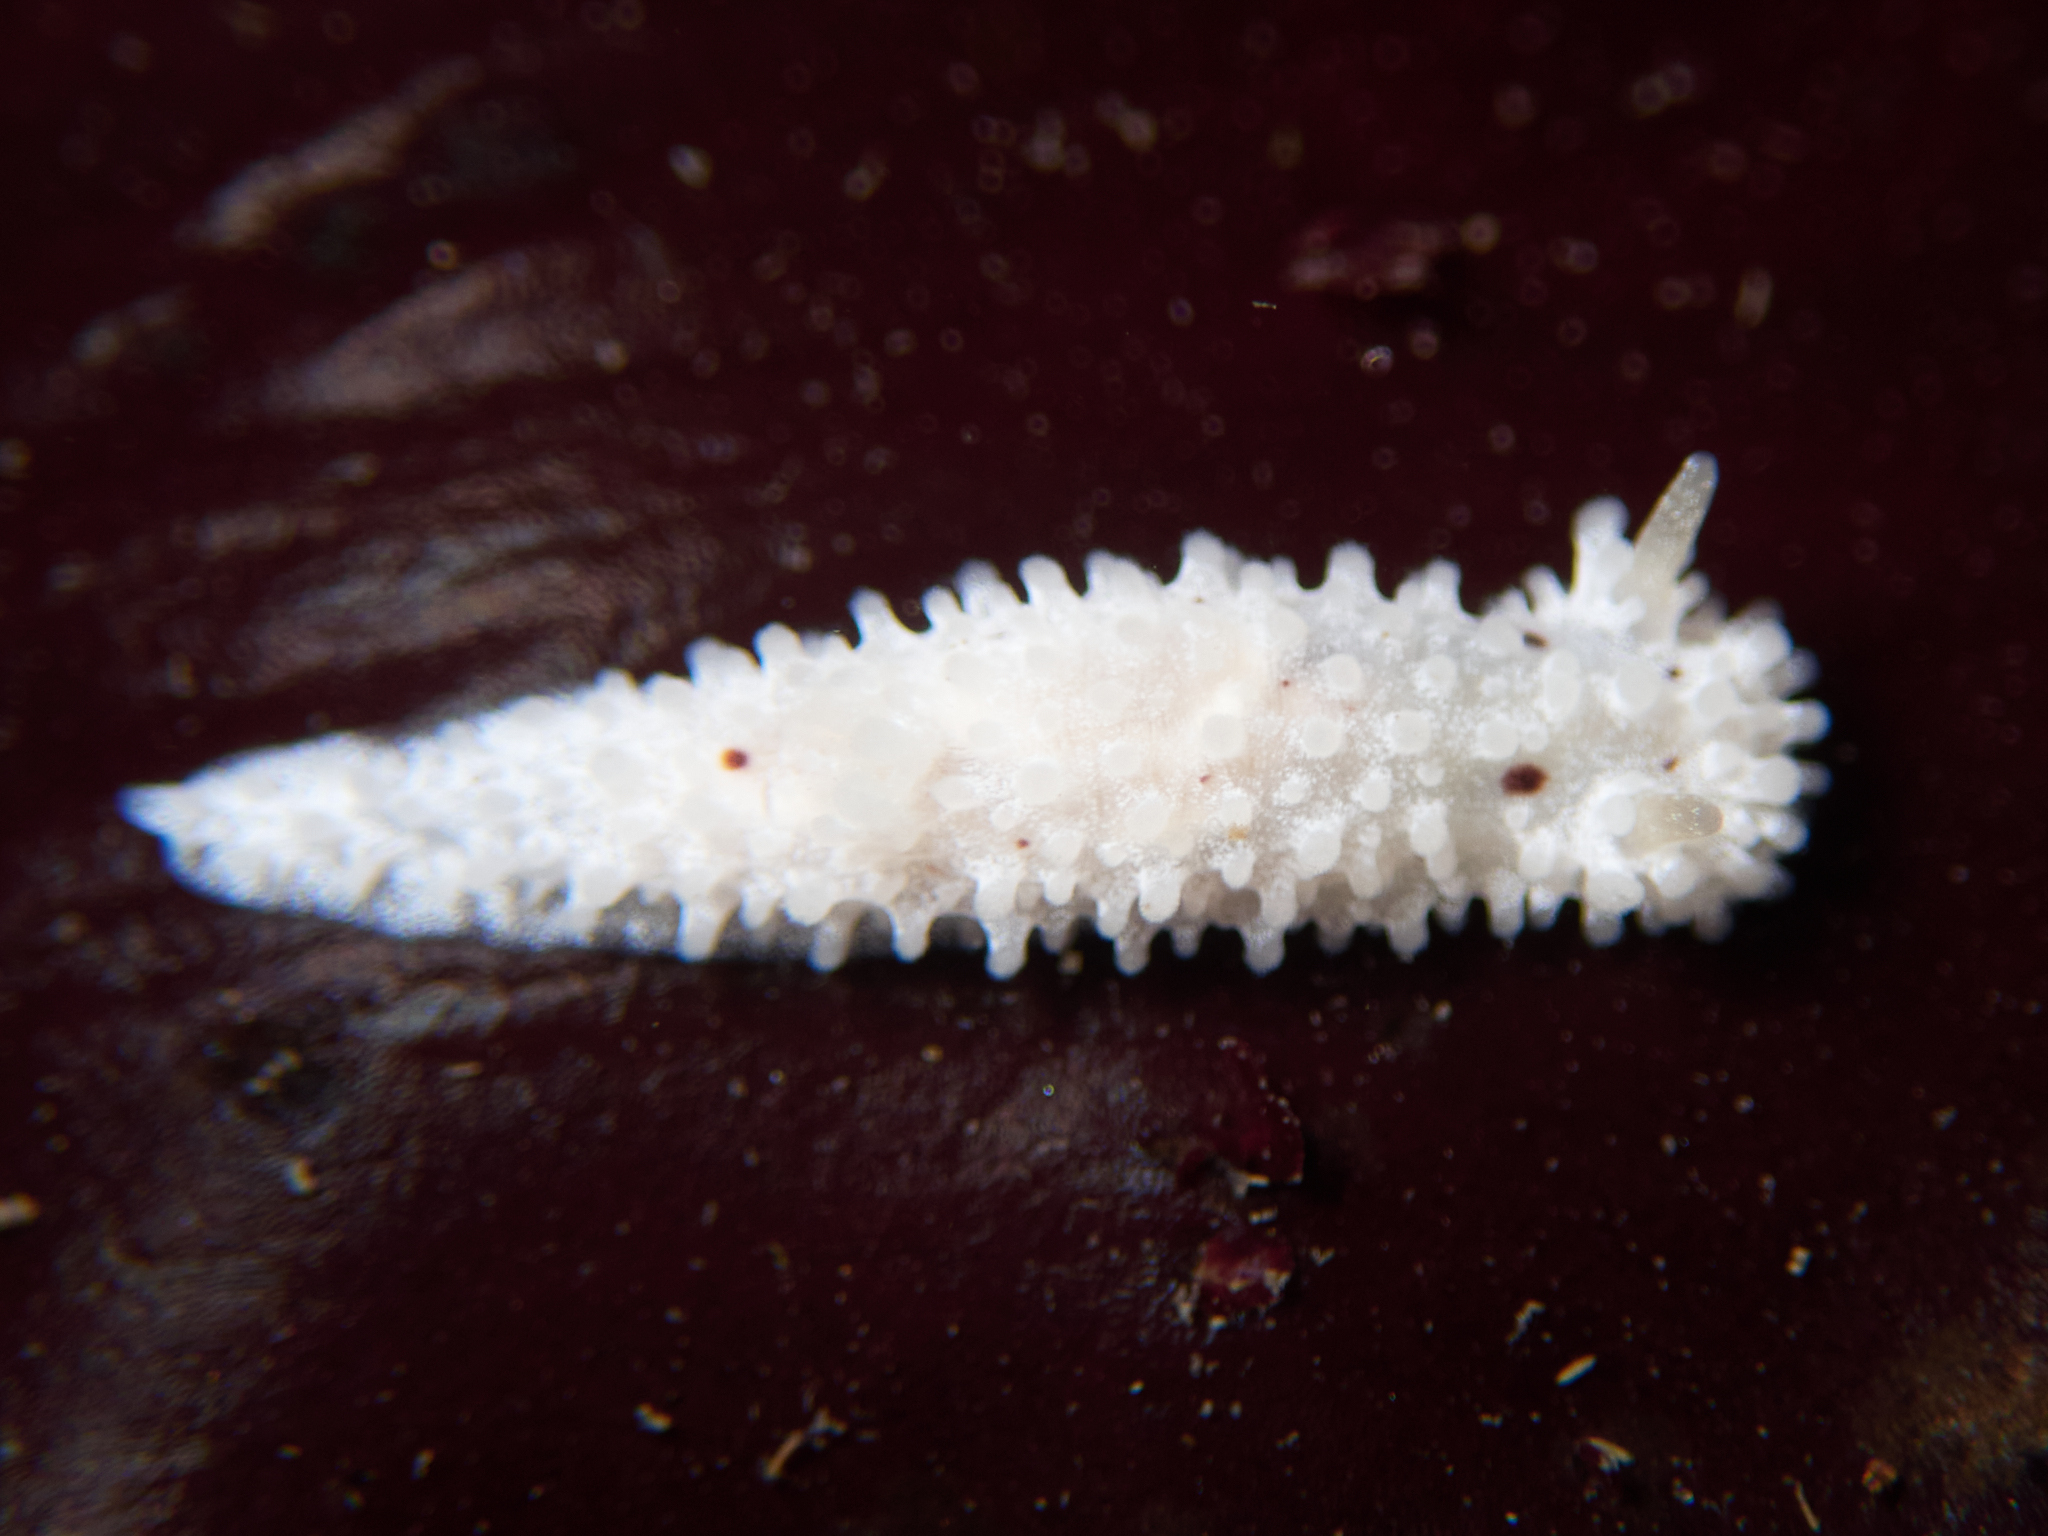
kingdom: Animalia
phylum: Mollusca
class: Gastropoda
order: Nudibranchia
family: Aegiridae
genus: Aegires
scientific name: Aegires albopunctatus
